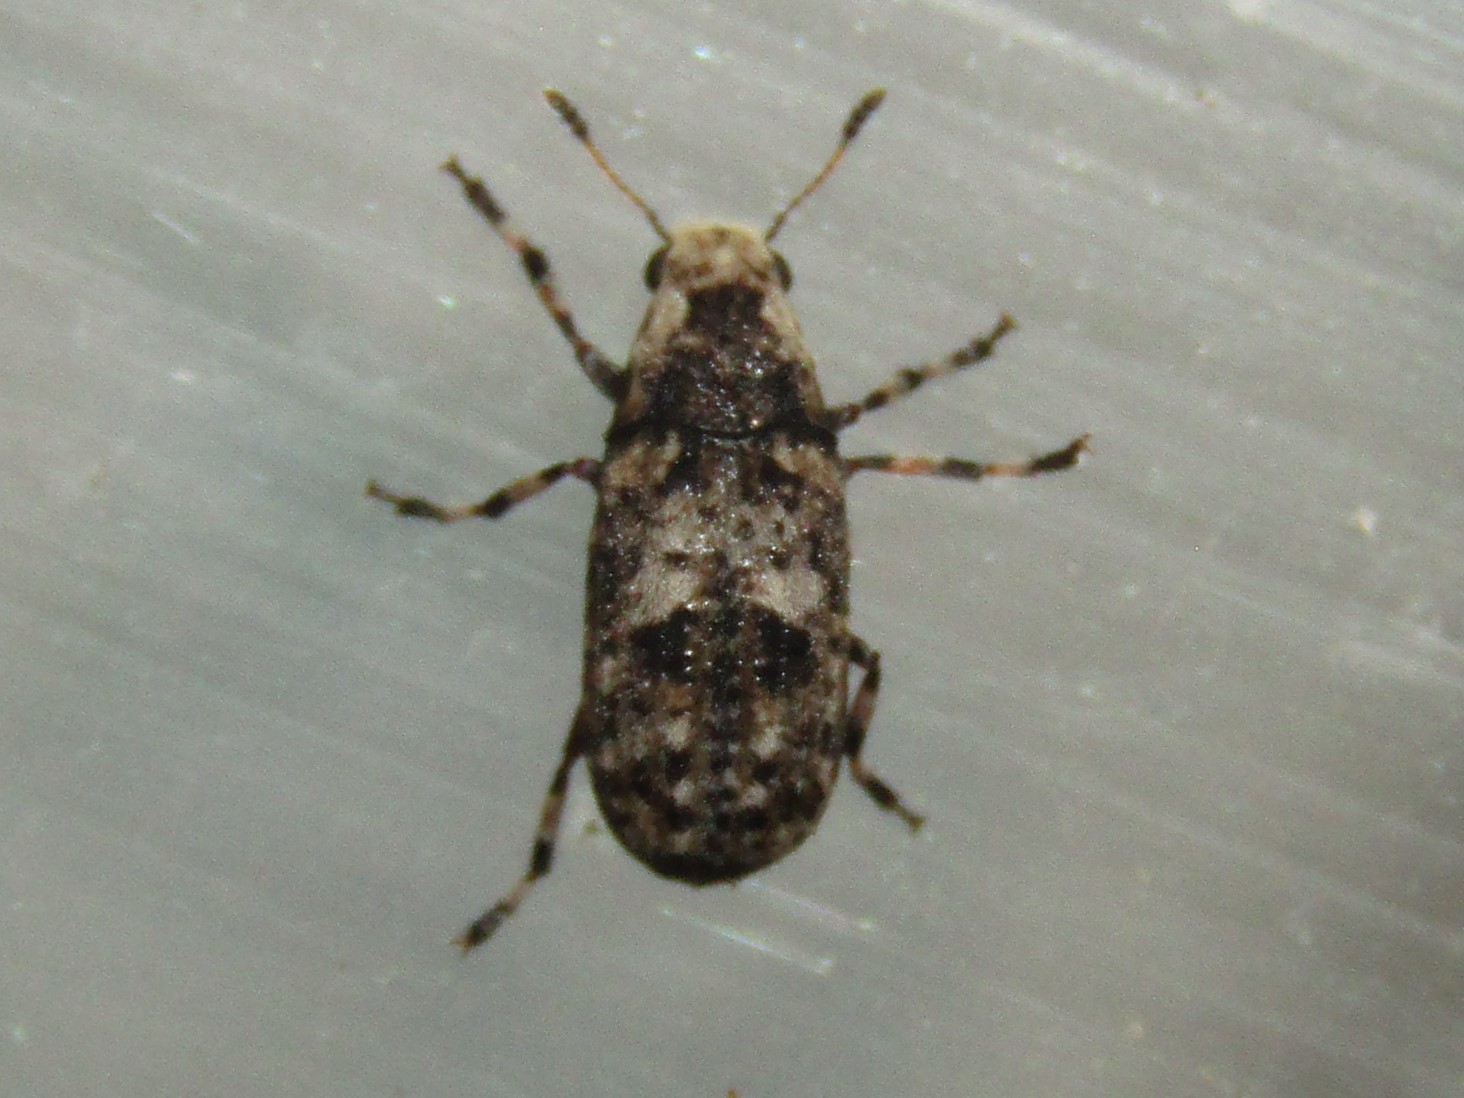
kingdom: Animalia
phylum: Arthropoda
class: Insecta
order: Coleoptera
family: Anthribidae
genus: Euparius
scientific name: Euparius marmoreus
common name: Marbled fungus weevil
